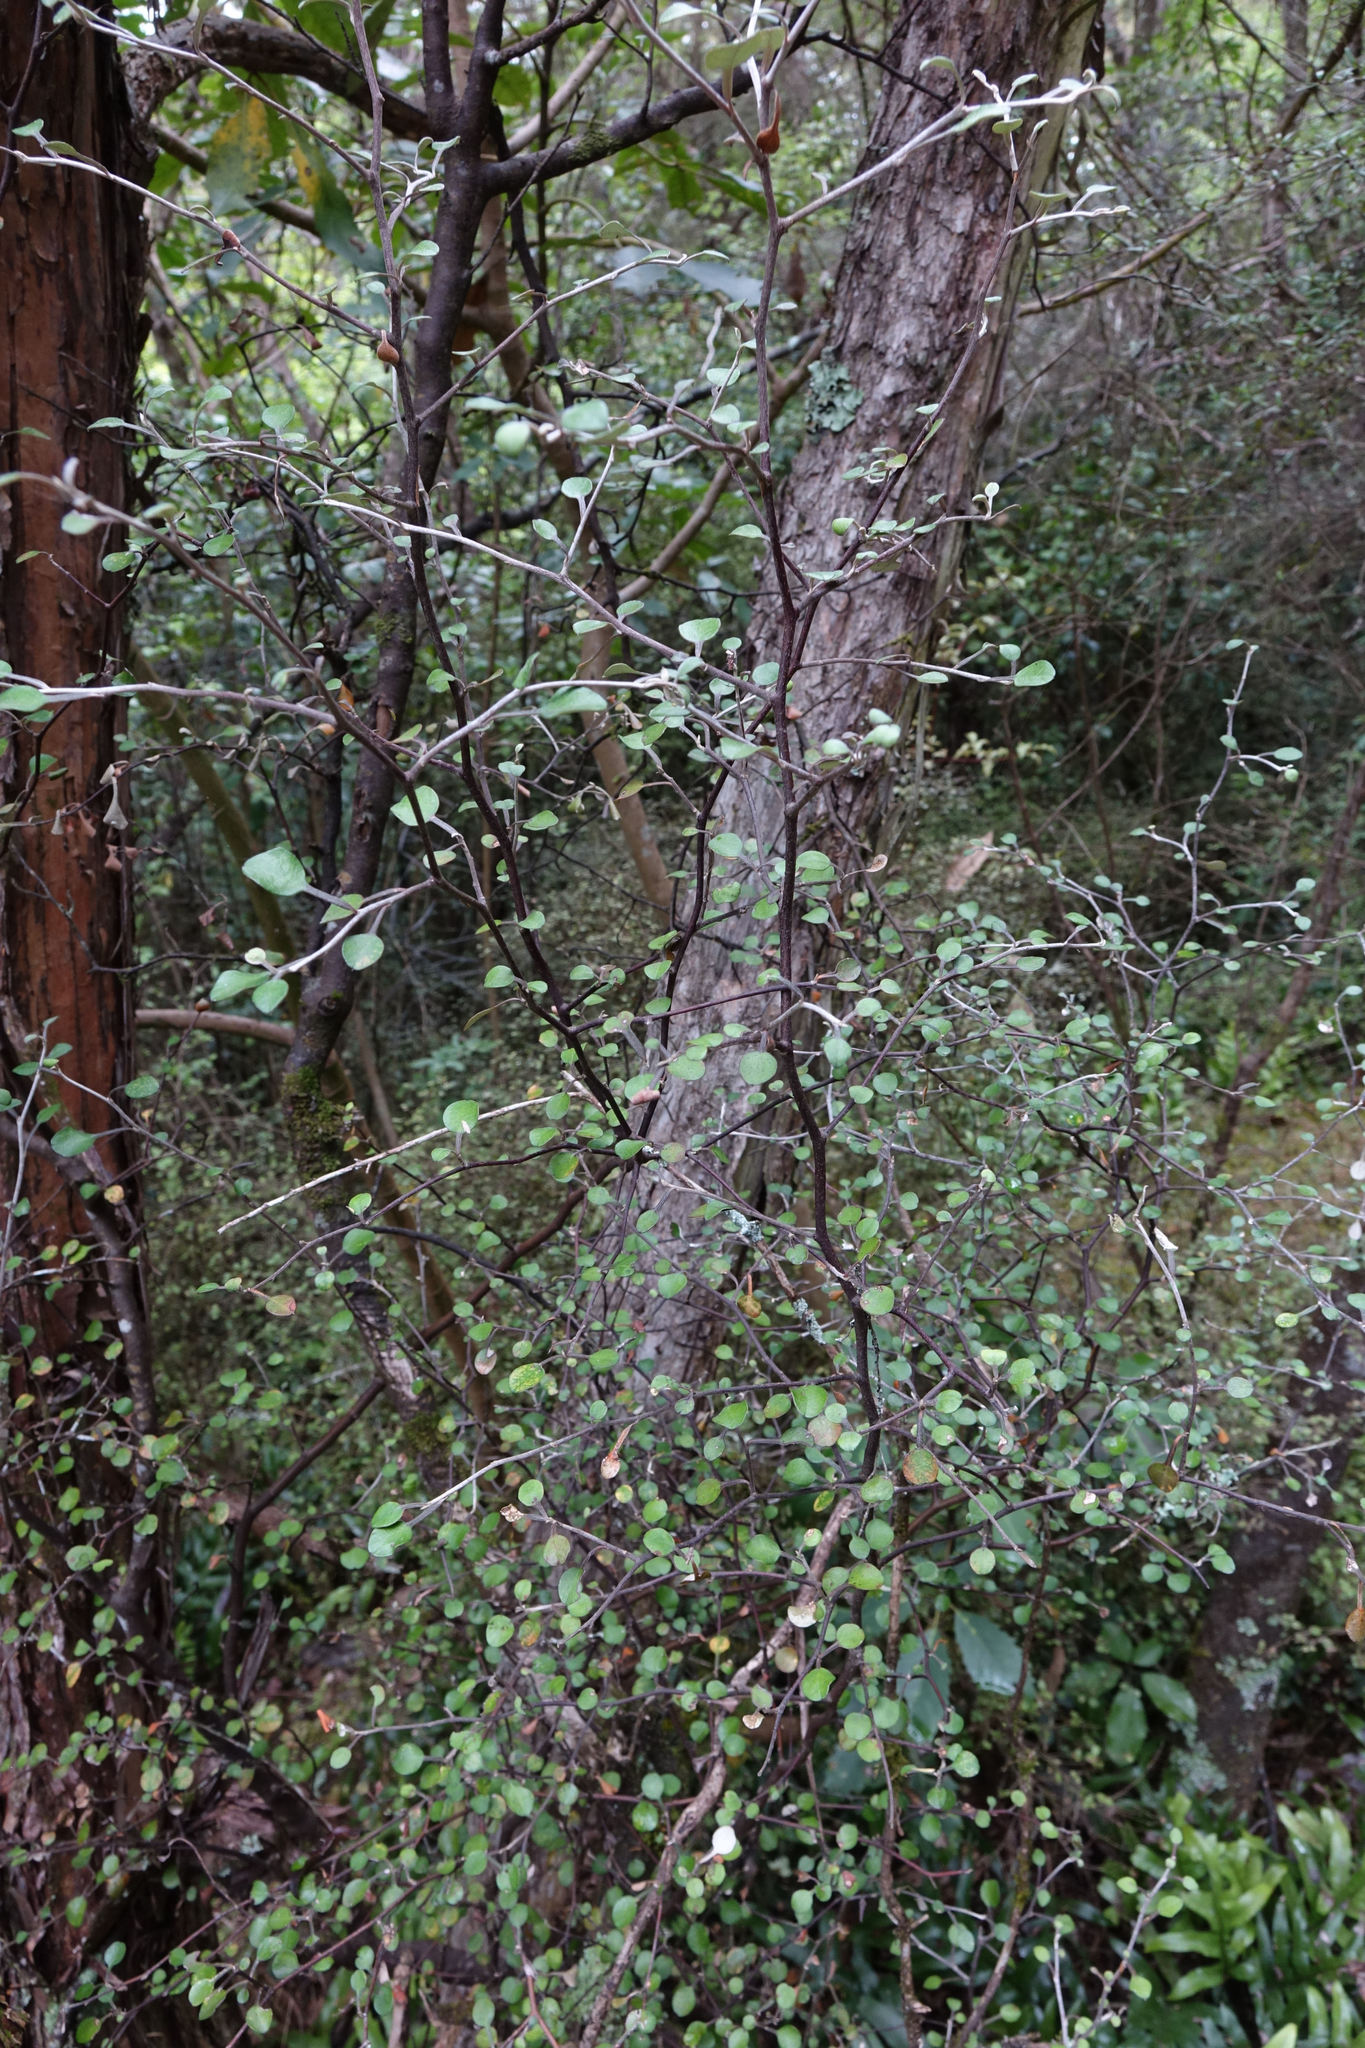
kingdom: Plantae
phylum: Tracheophyta
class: Magnoliopsida
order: Asterales
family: Argophyllaceae
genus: Corokia
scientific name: Corokia cotoneaster
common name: Wire nettingbush
